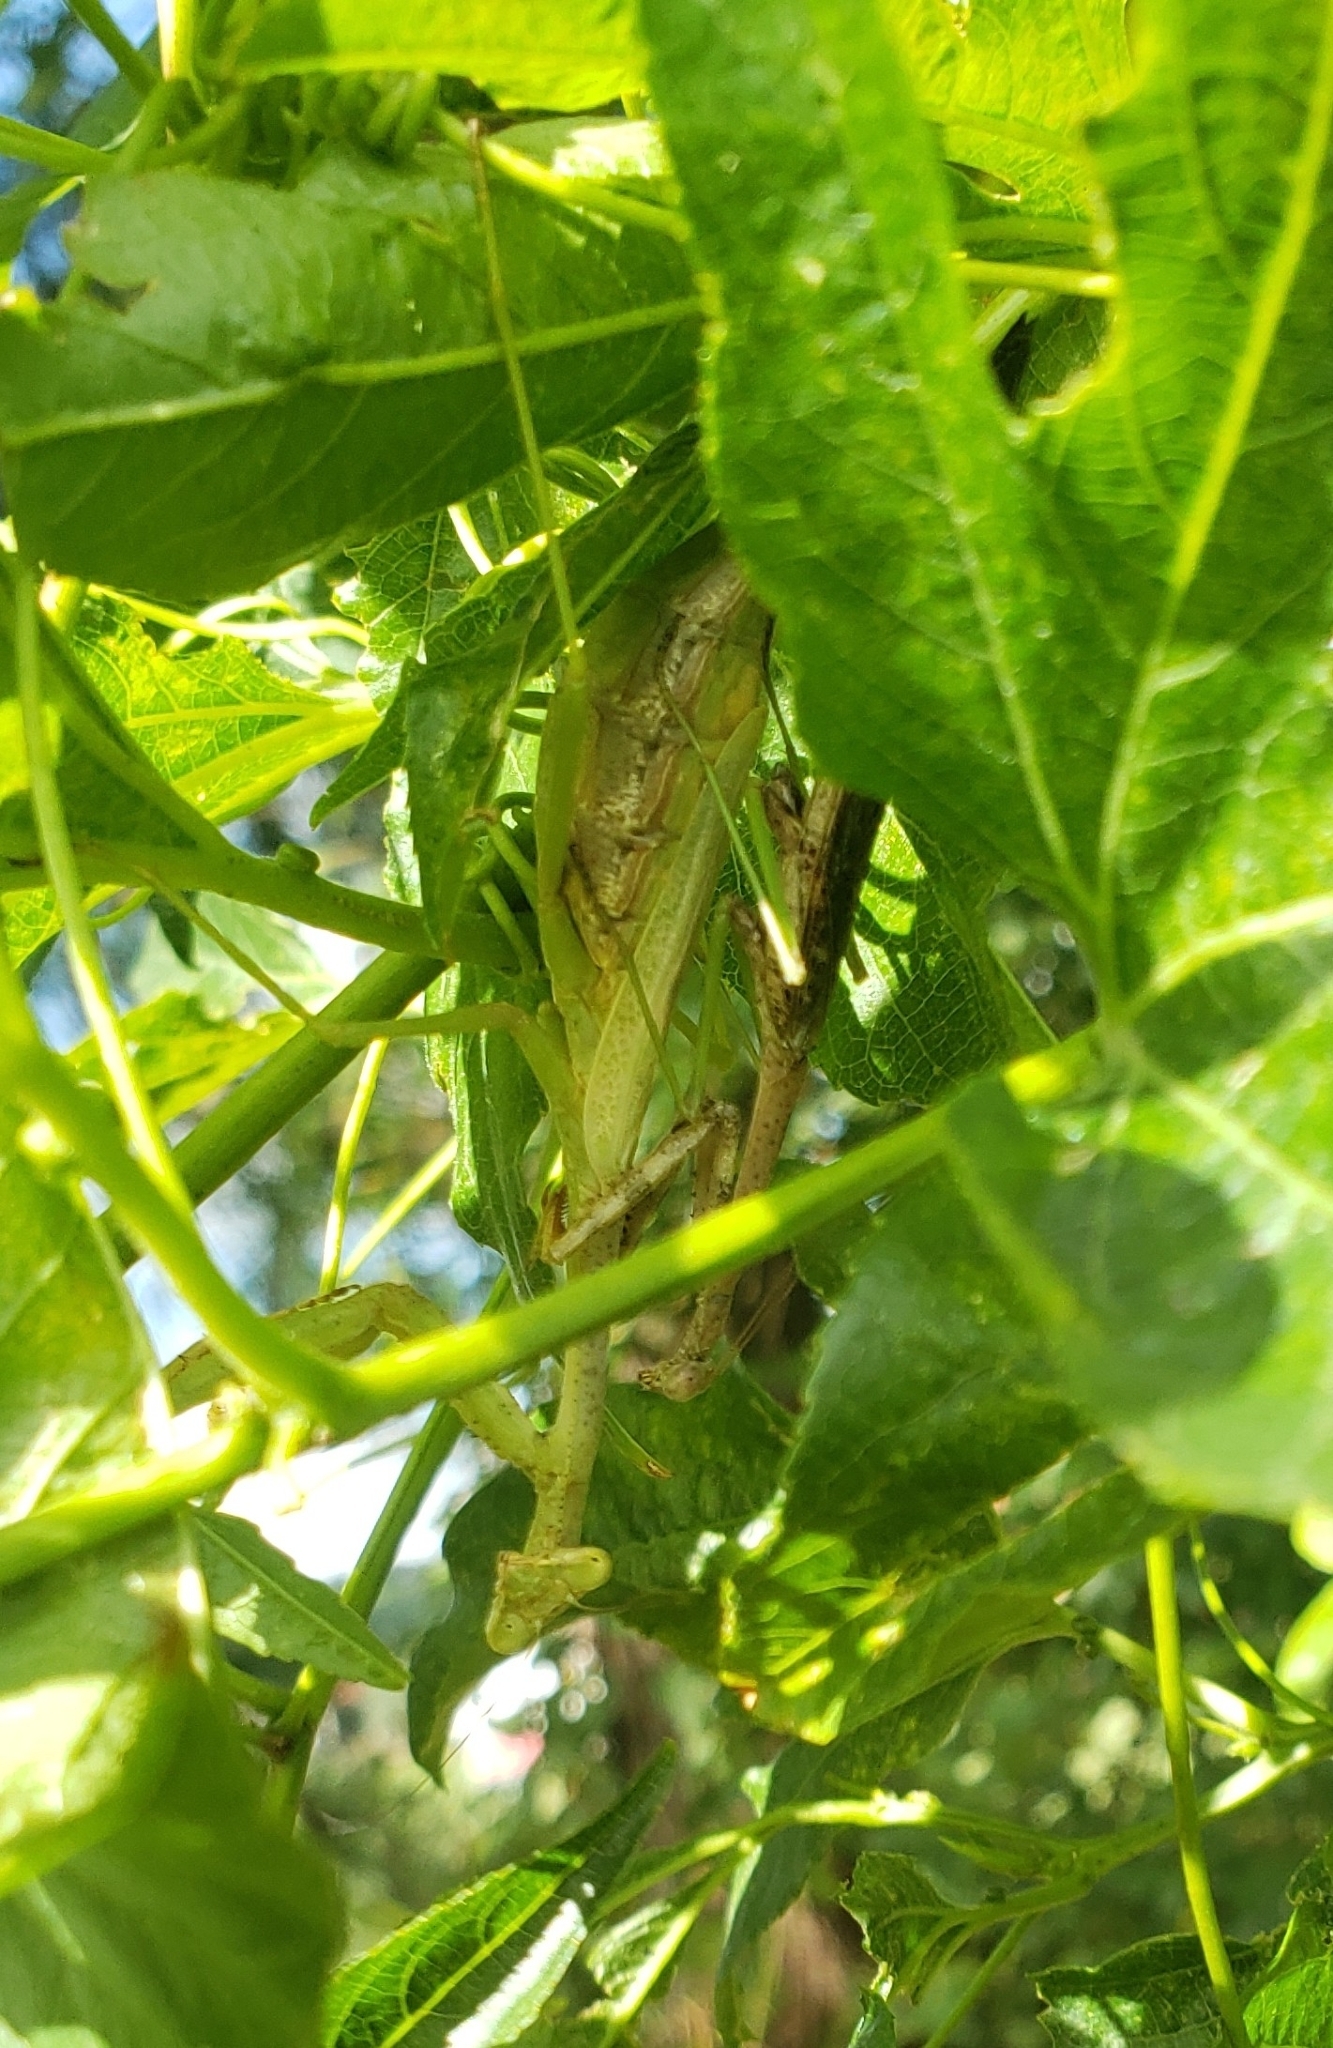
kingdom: Animalia
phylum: Arthropoda
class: Insecta
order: Mantodea
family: Mantidae
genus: Stagmomantis
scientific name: Stagmomantis carolina
